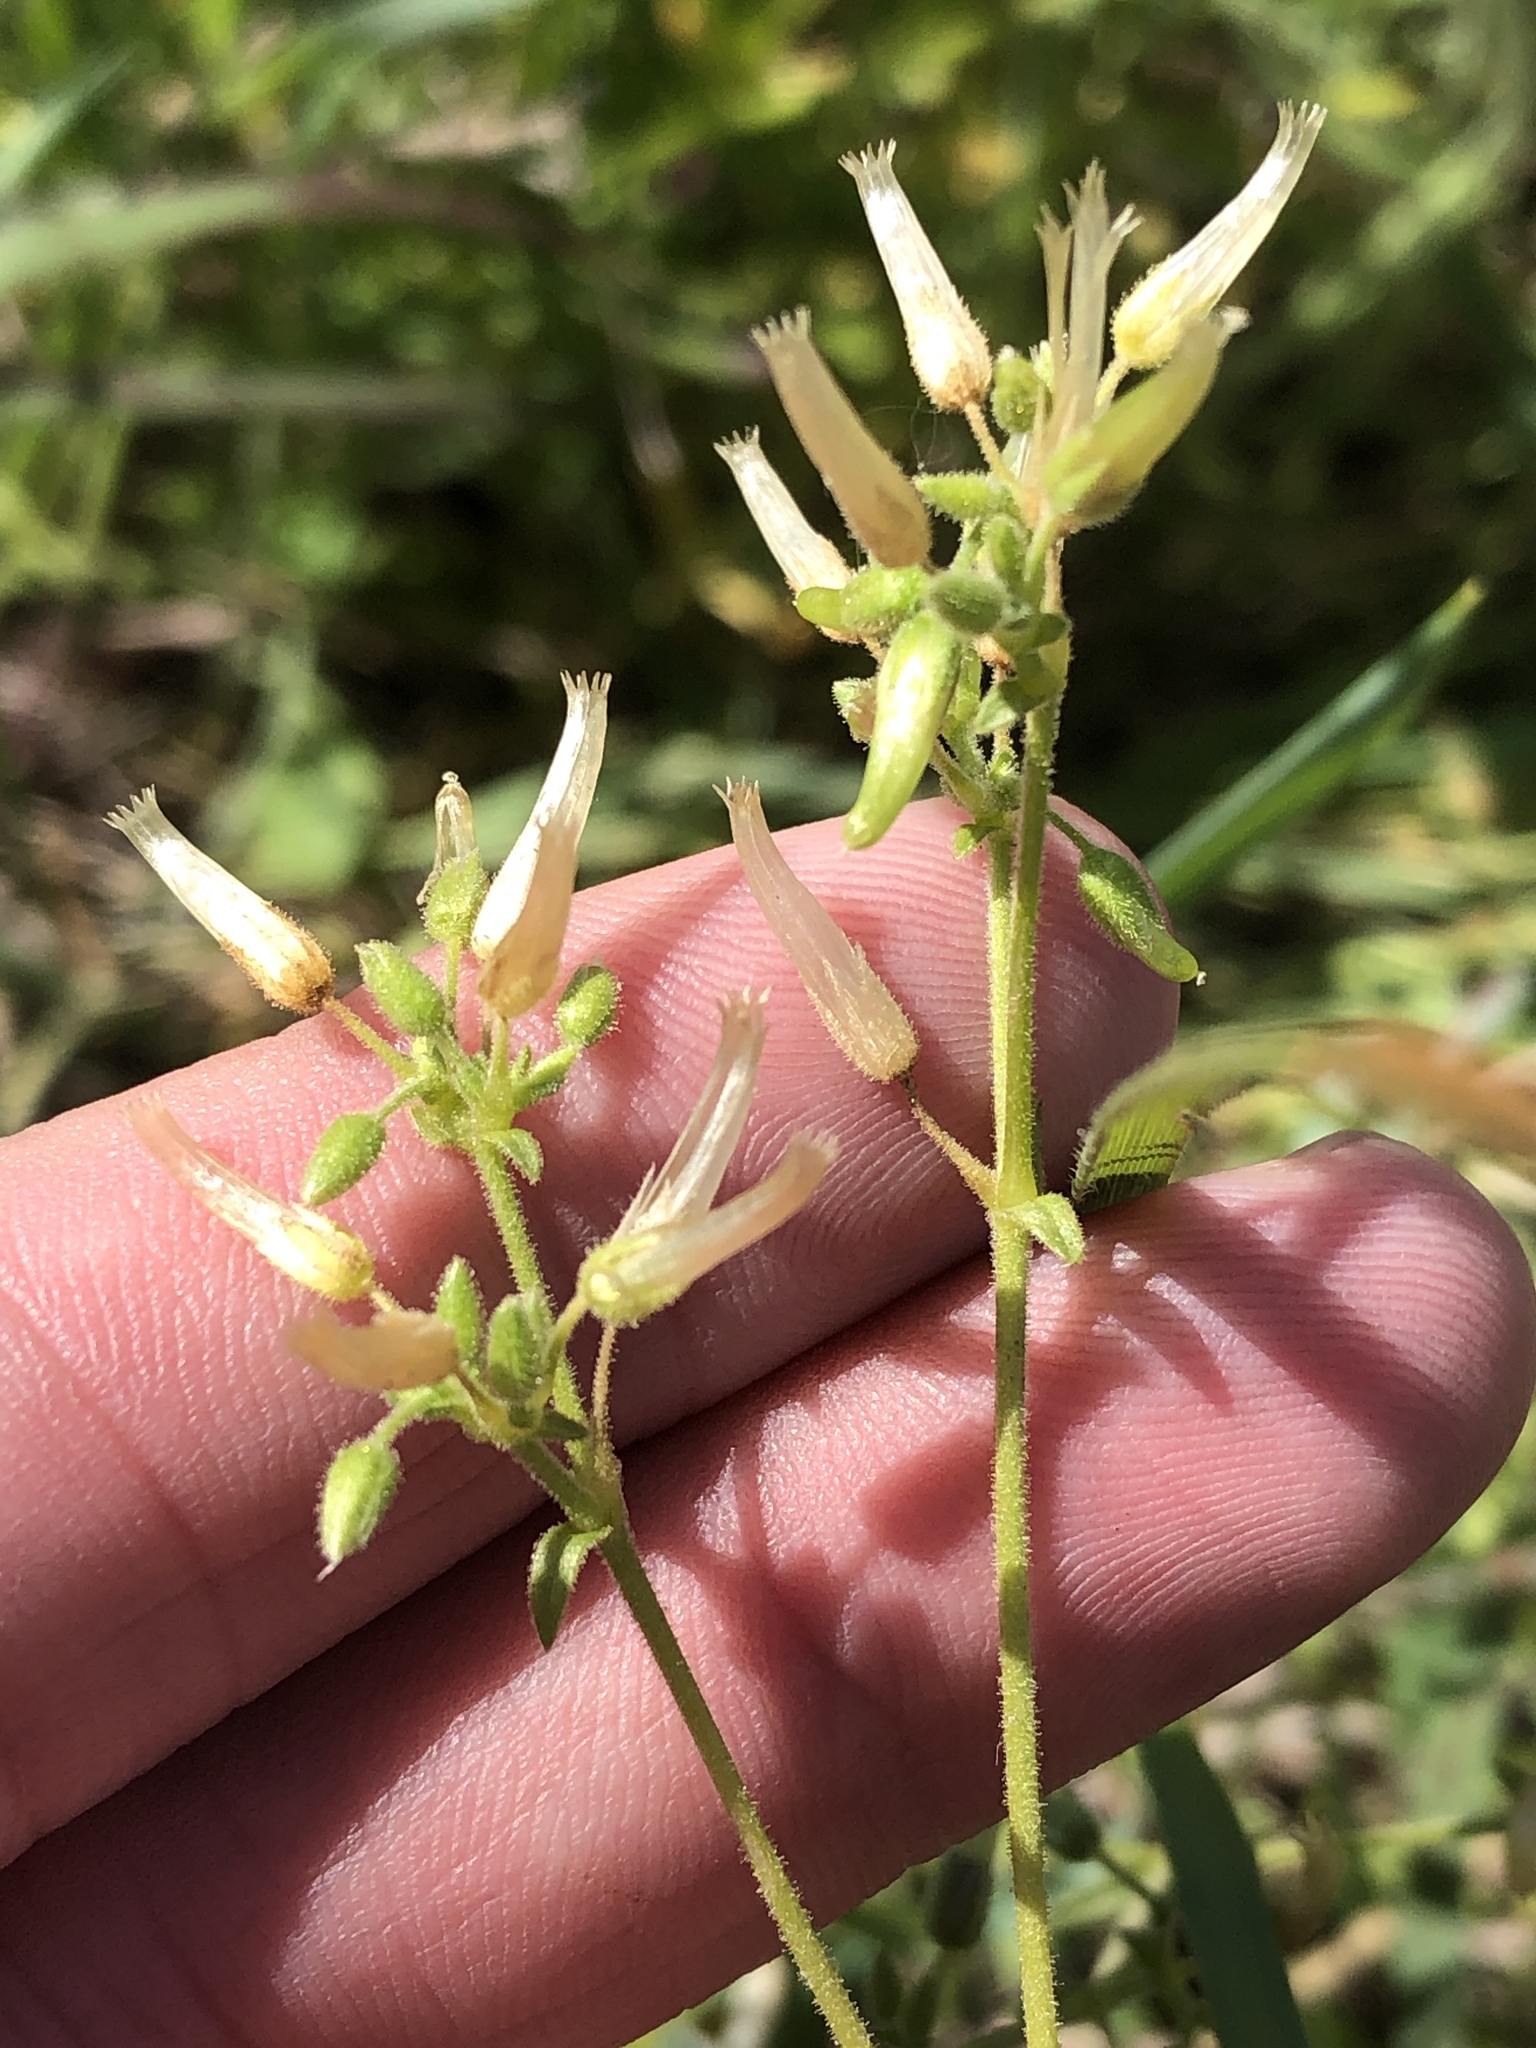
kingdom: Plantae
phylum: Tracheophyta
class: Magnoliopsida
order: Caryophyllales
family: Caryophyllaceae
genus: Cerastium
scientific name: Cerastium glomeratum
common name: Sticky chickweed
